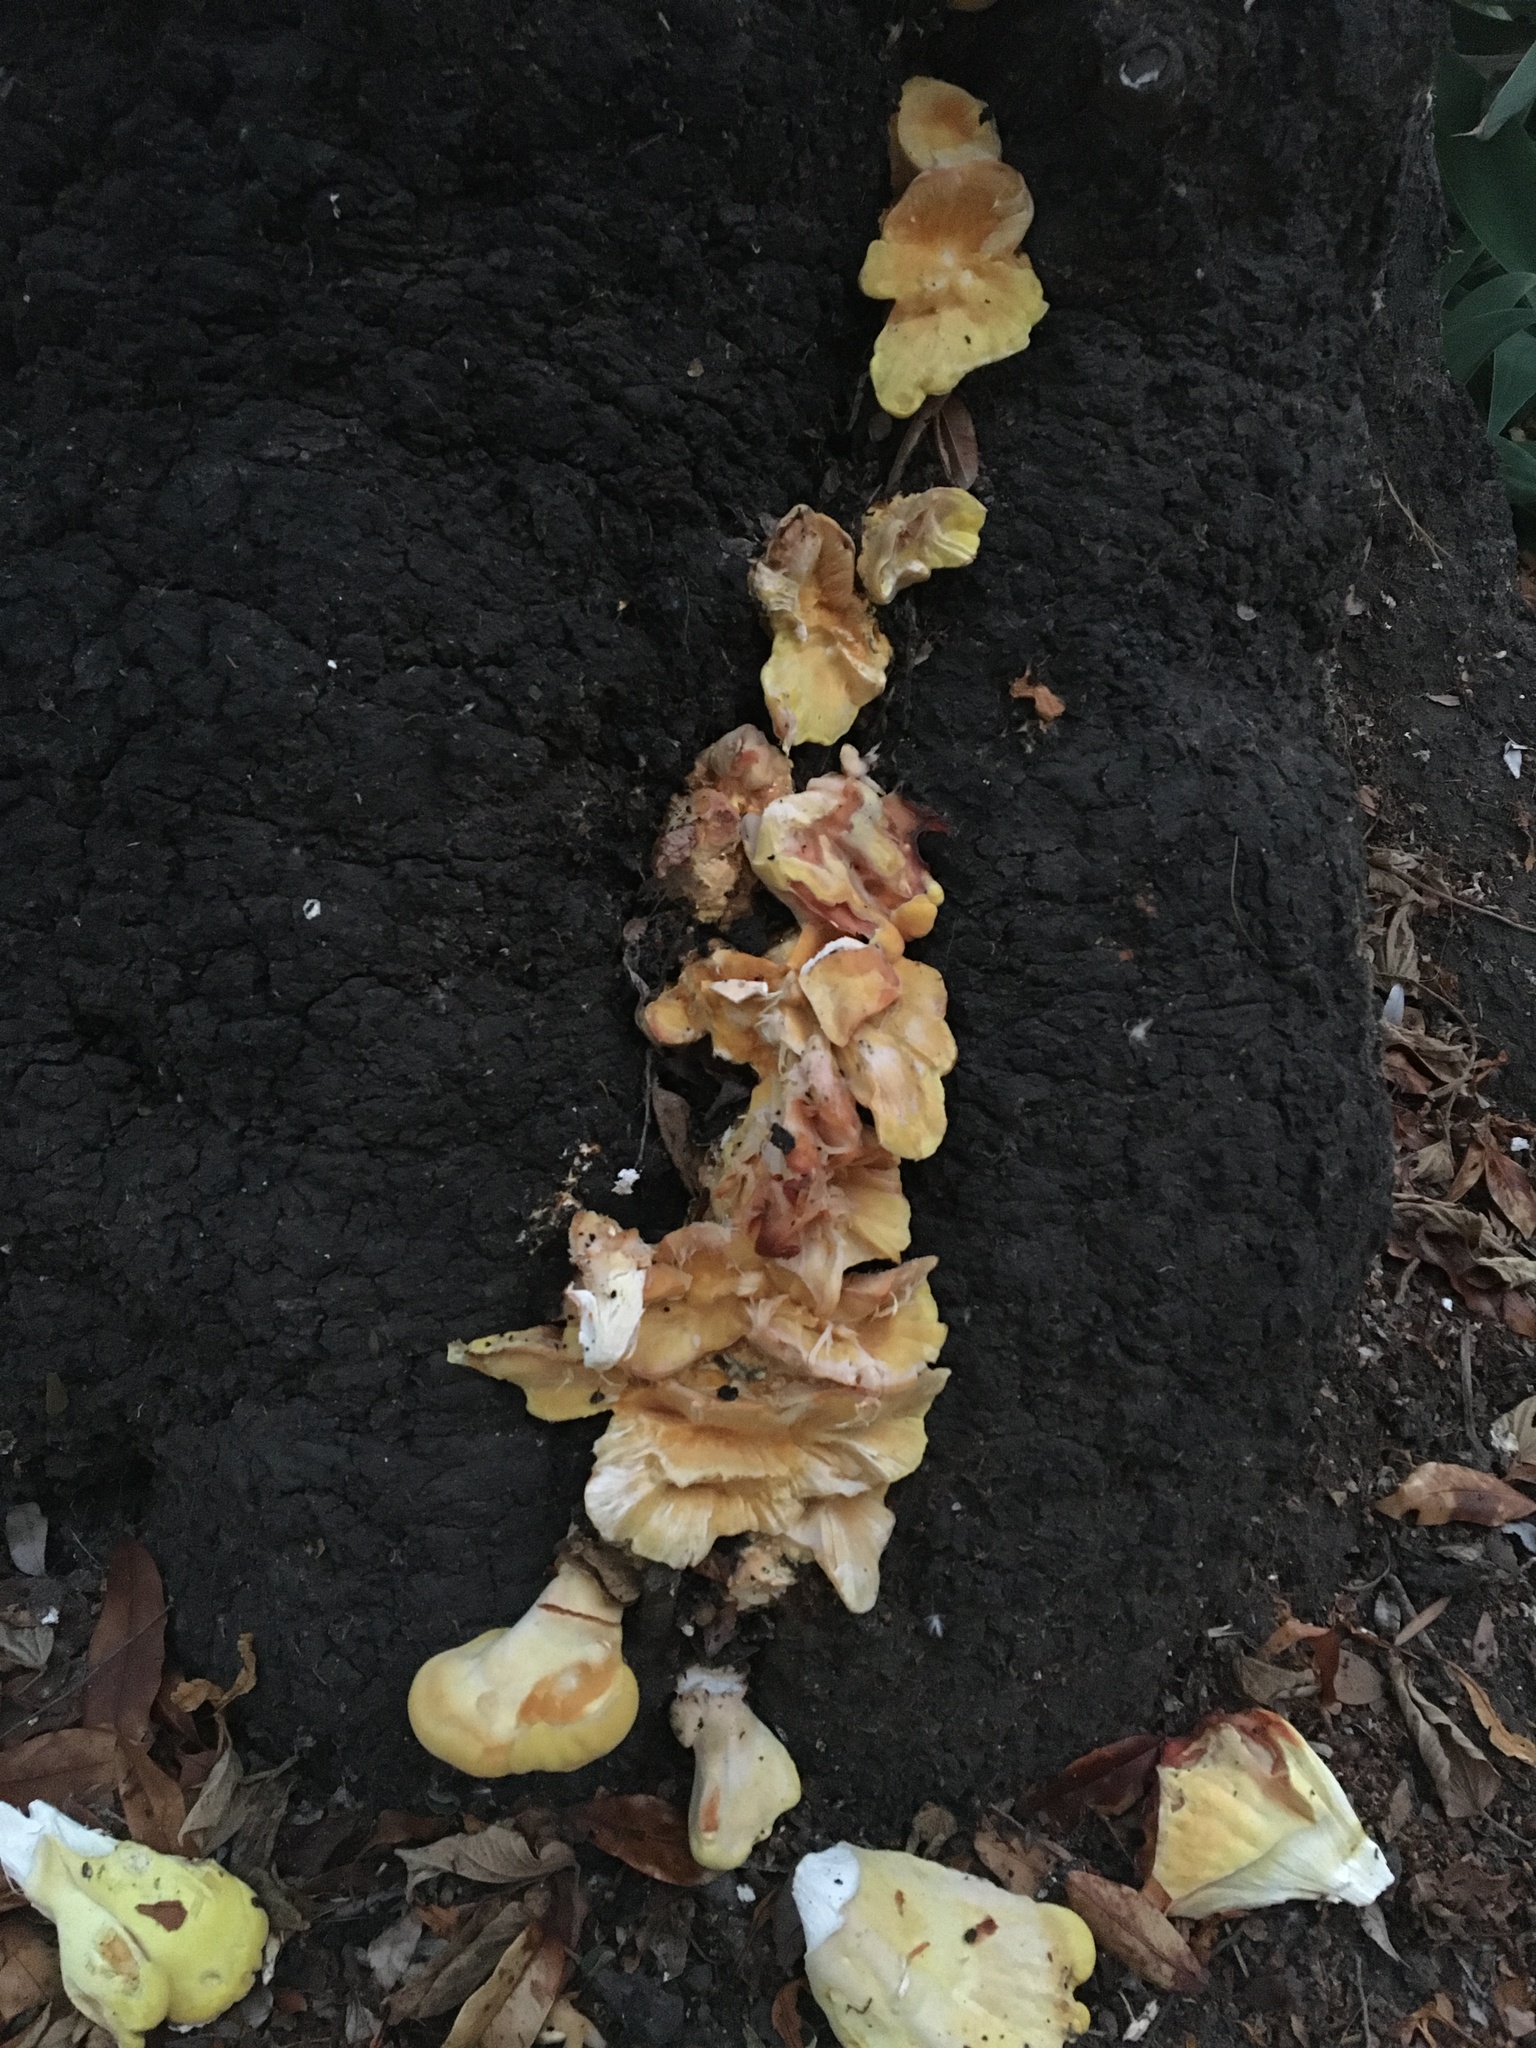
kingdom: Fungi
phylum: Basidiomycota
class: Agaricomycetes
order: Polyporales
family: Laetiporaceae
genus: Laetiporus
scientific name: Laetiporus gilbertsonii
